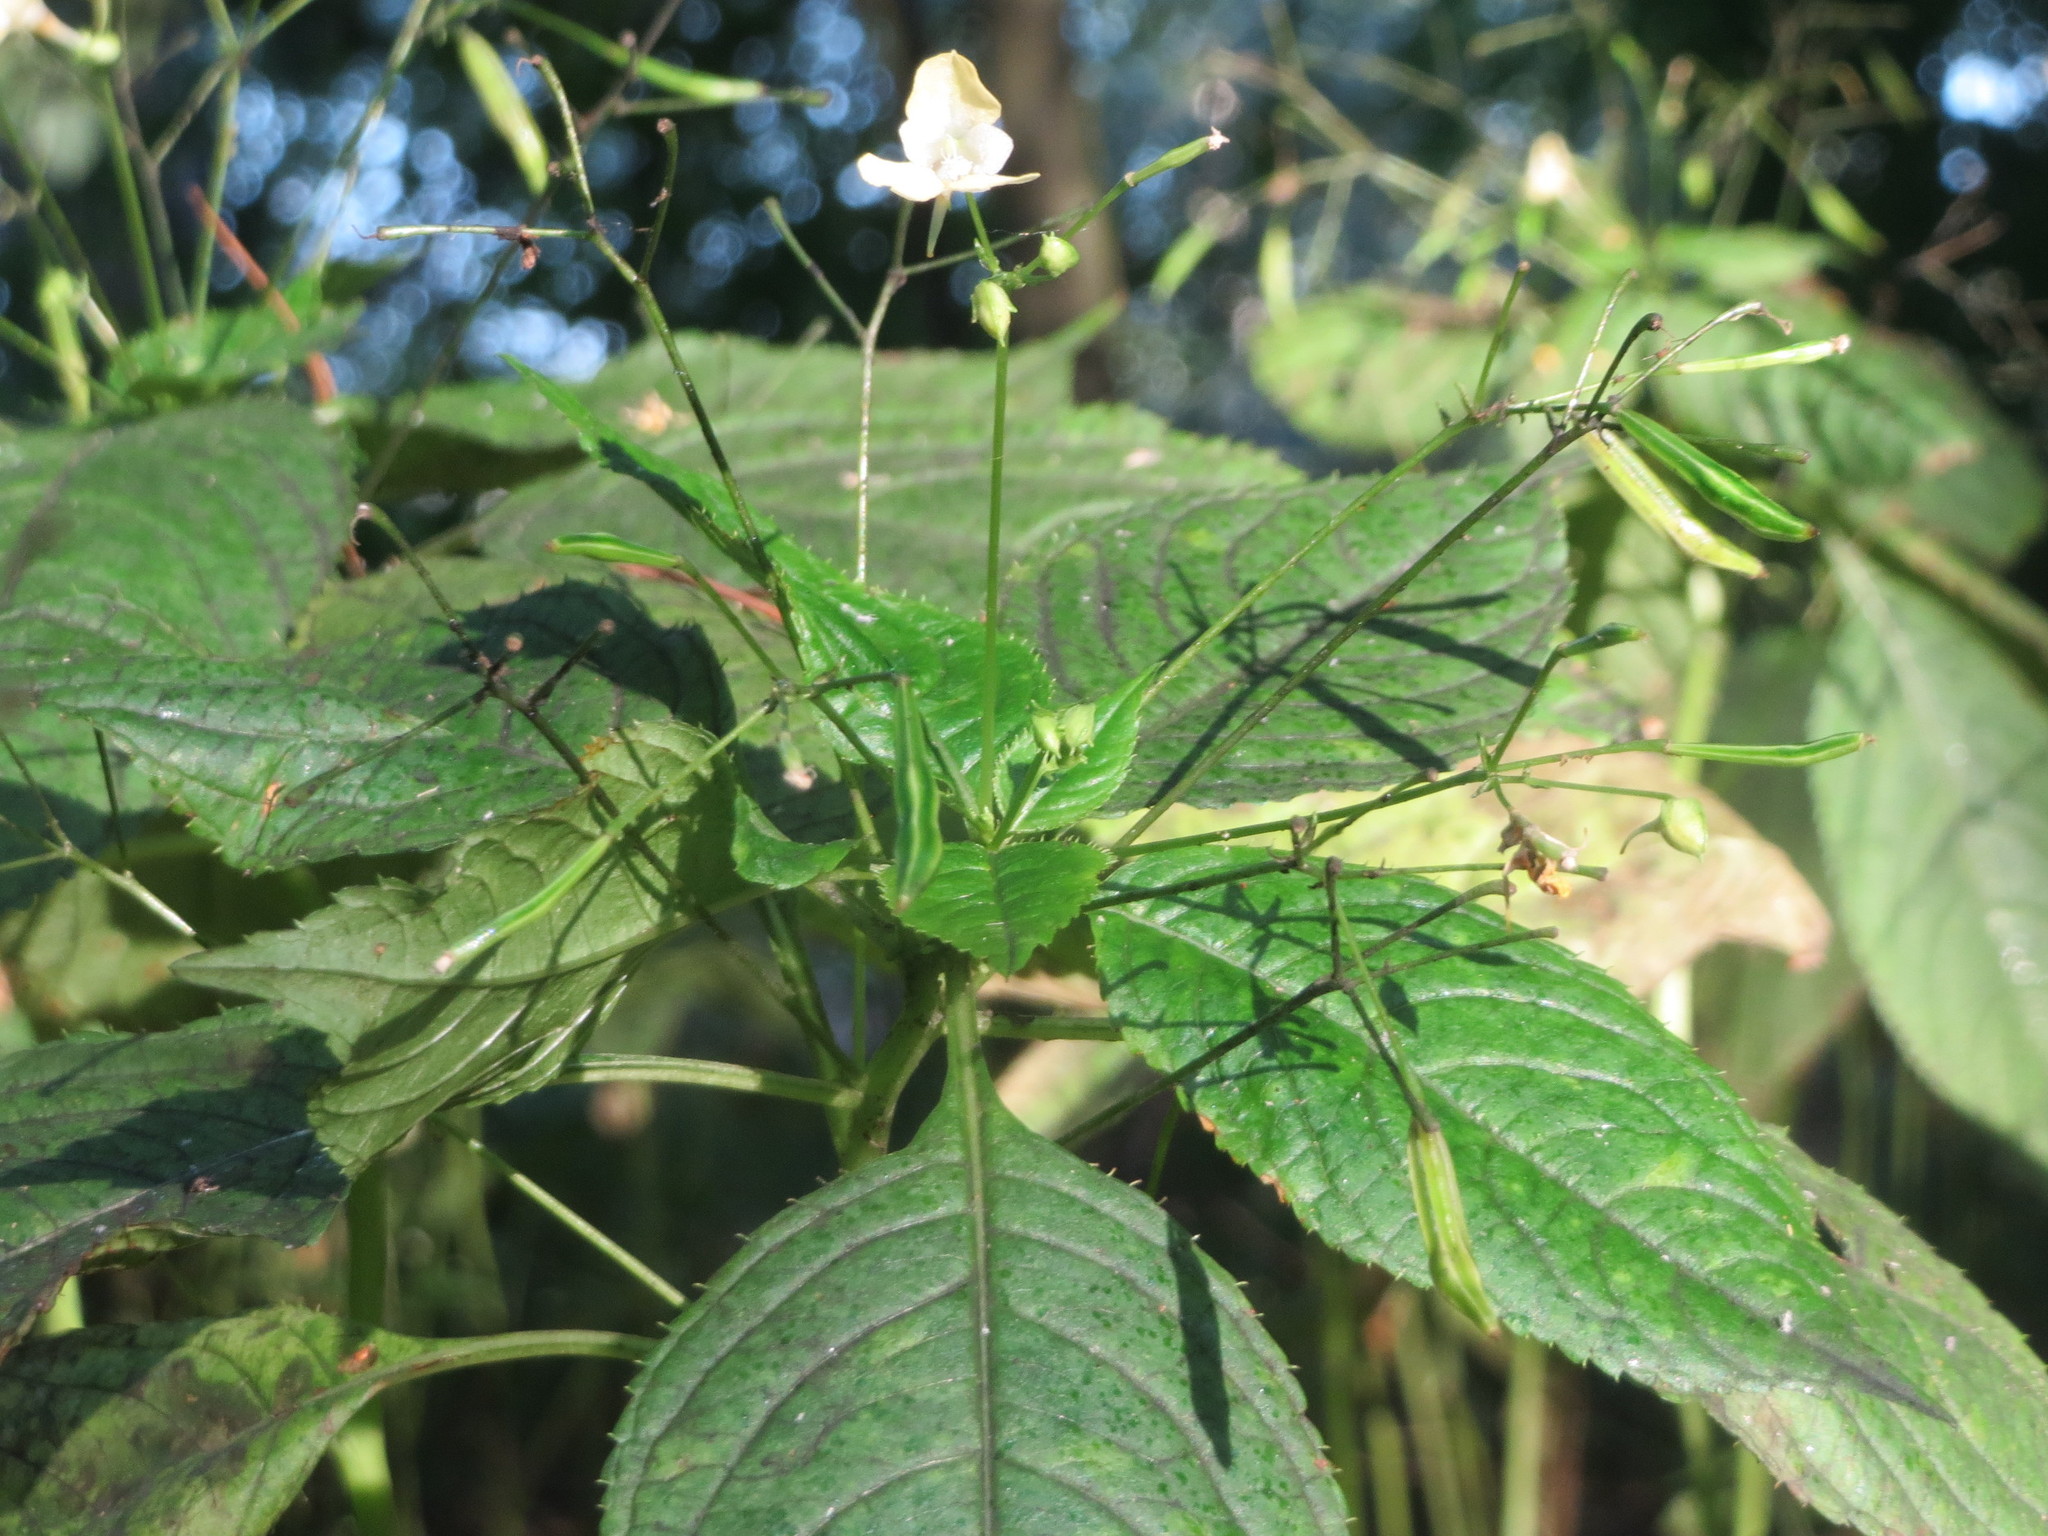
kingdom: Plantae
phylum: Tracheophyta
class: Magnoliopsida
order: Ericales
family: Balsaminaceae
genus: Impatiens
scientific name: Impatiens parviflora
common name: Small balsam
